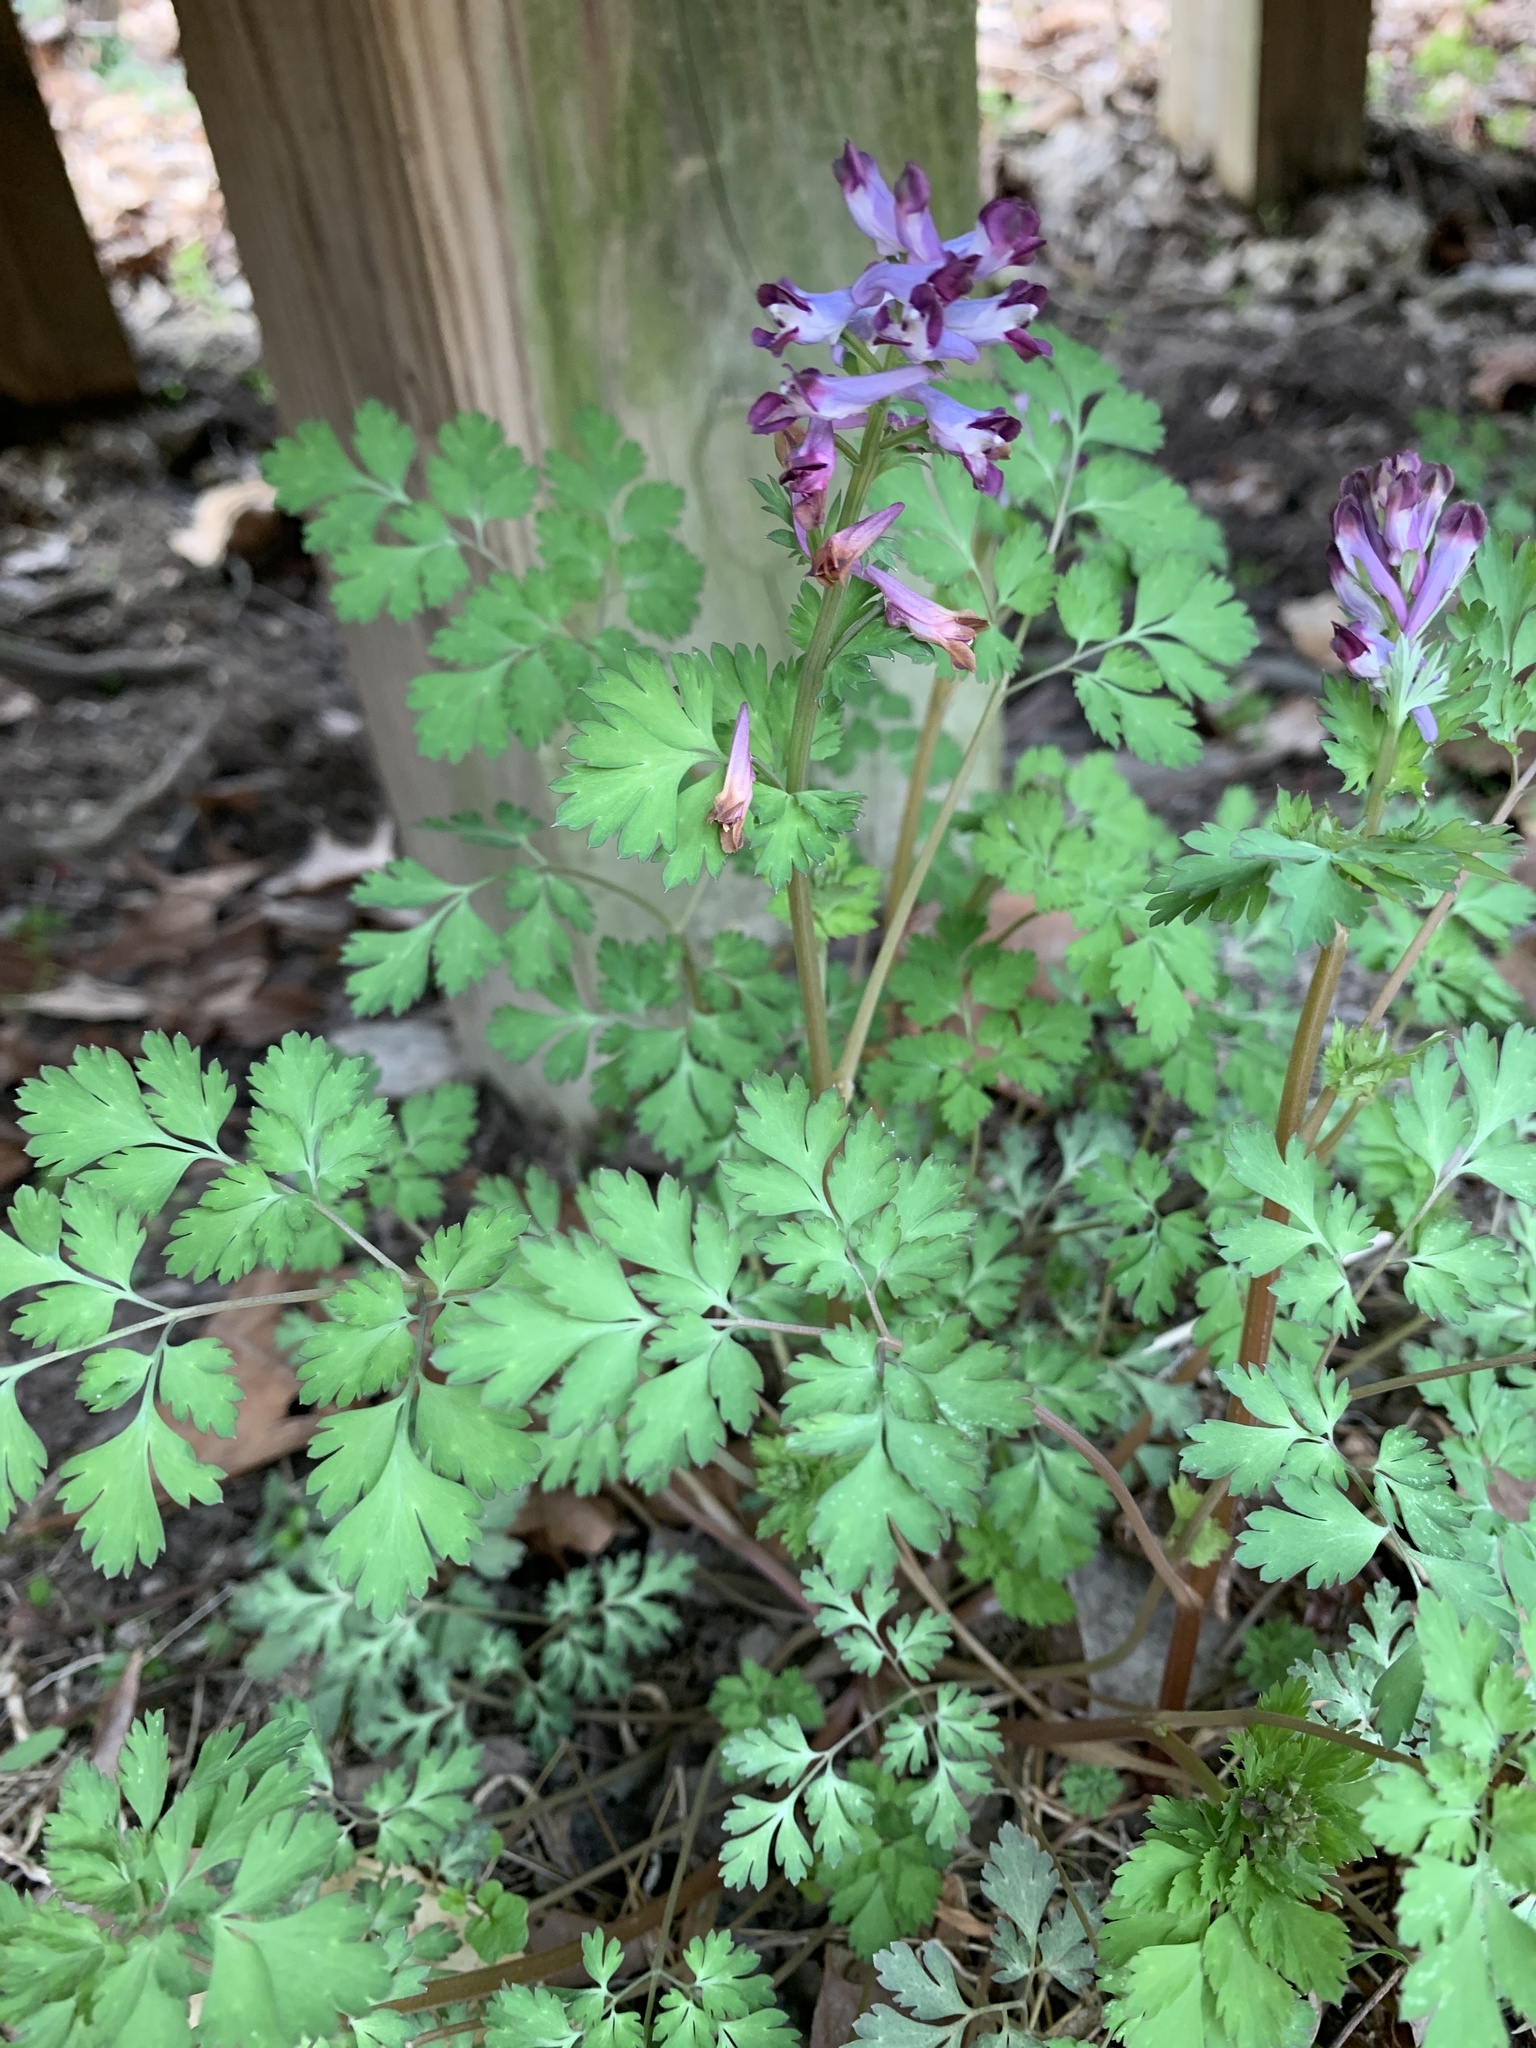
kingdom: Plantae
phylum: Tracheophyta
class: Magnoliopsida
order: Ranunculales
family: Papaveraceae
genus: Corydalis
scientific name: Corydalis incisa
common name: Incised fumewort
